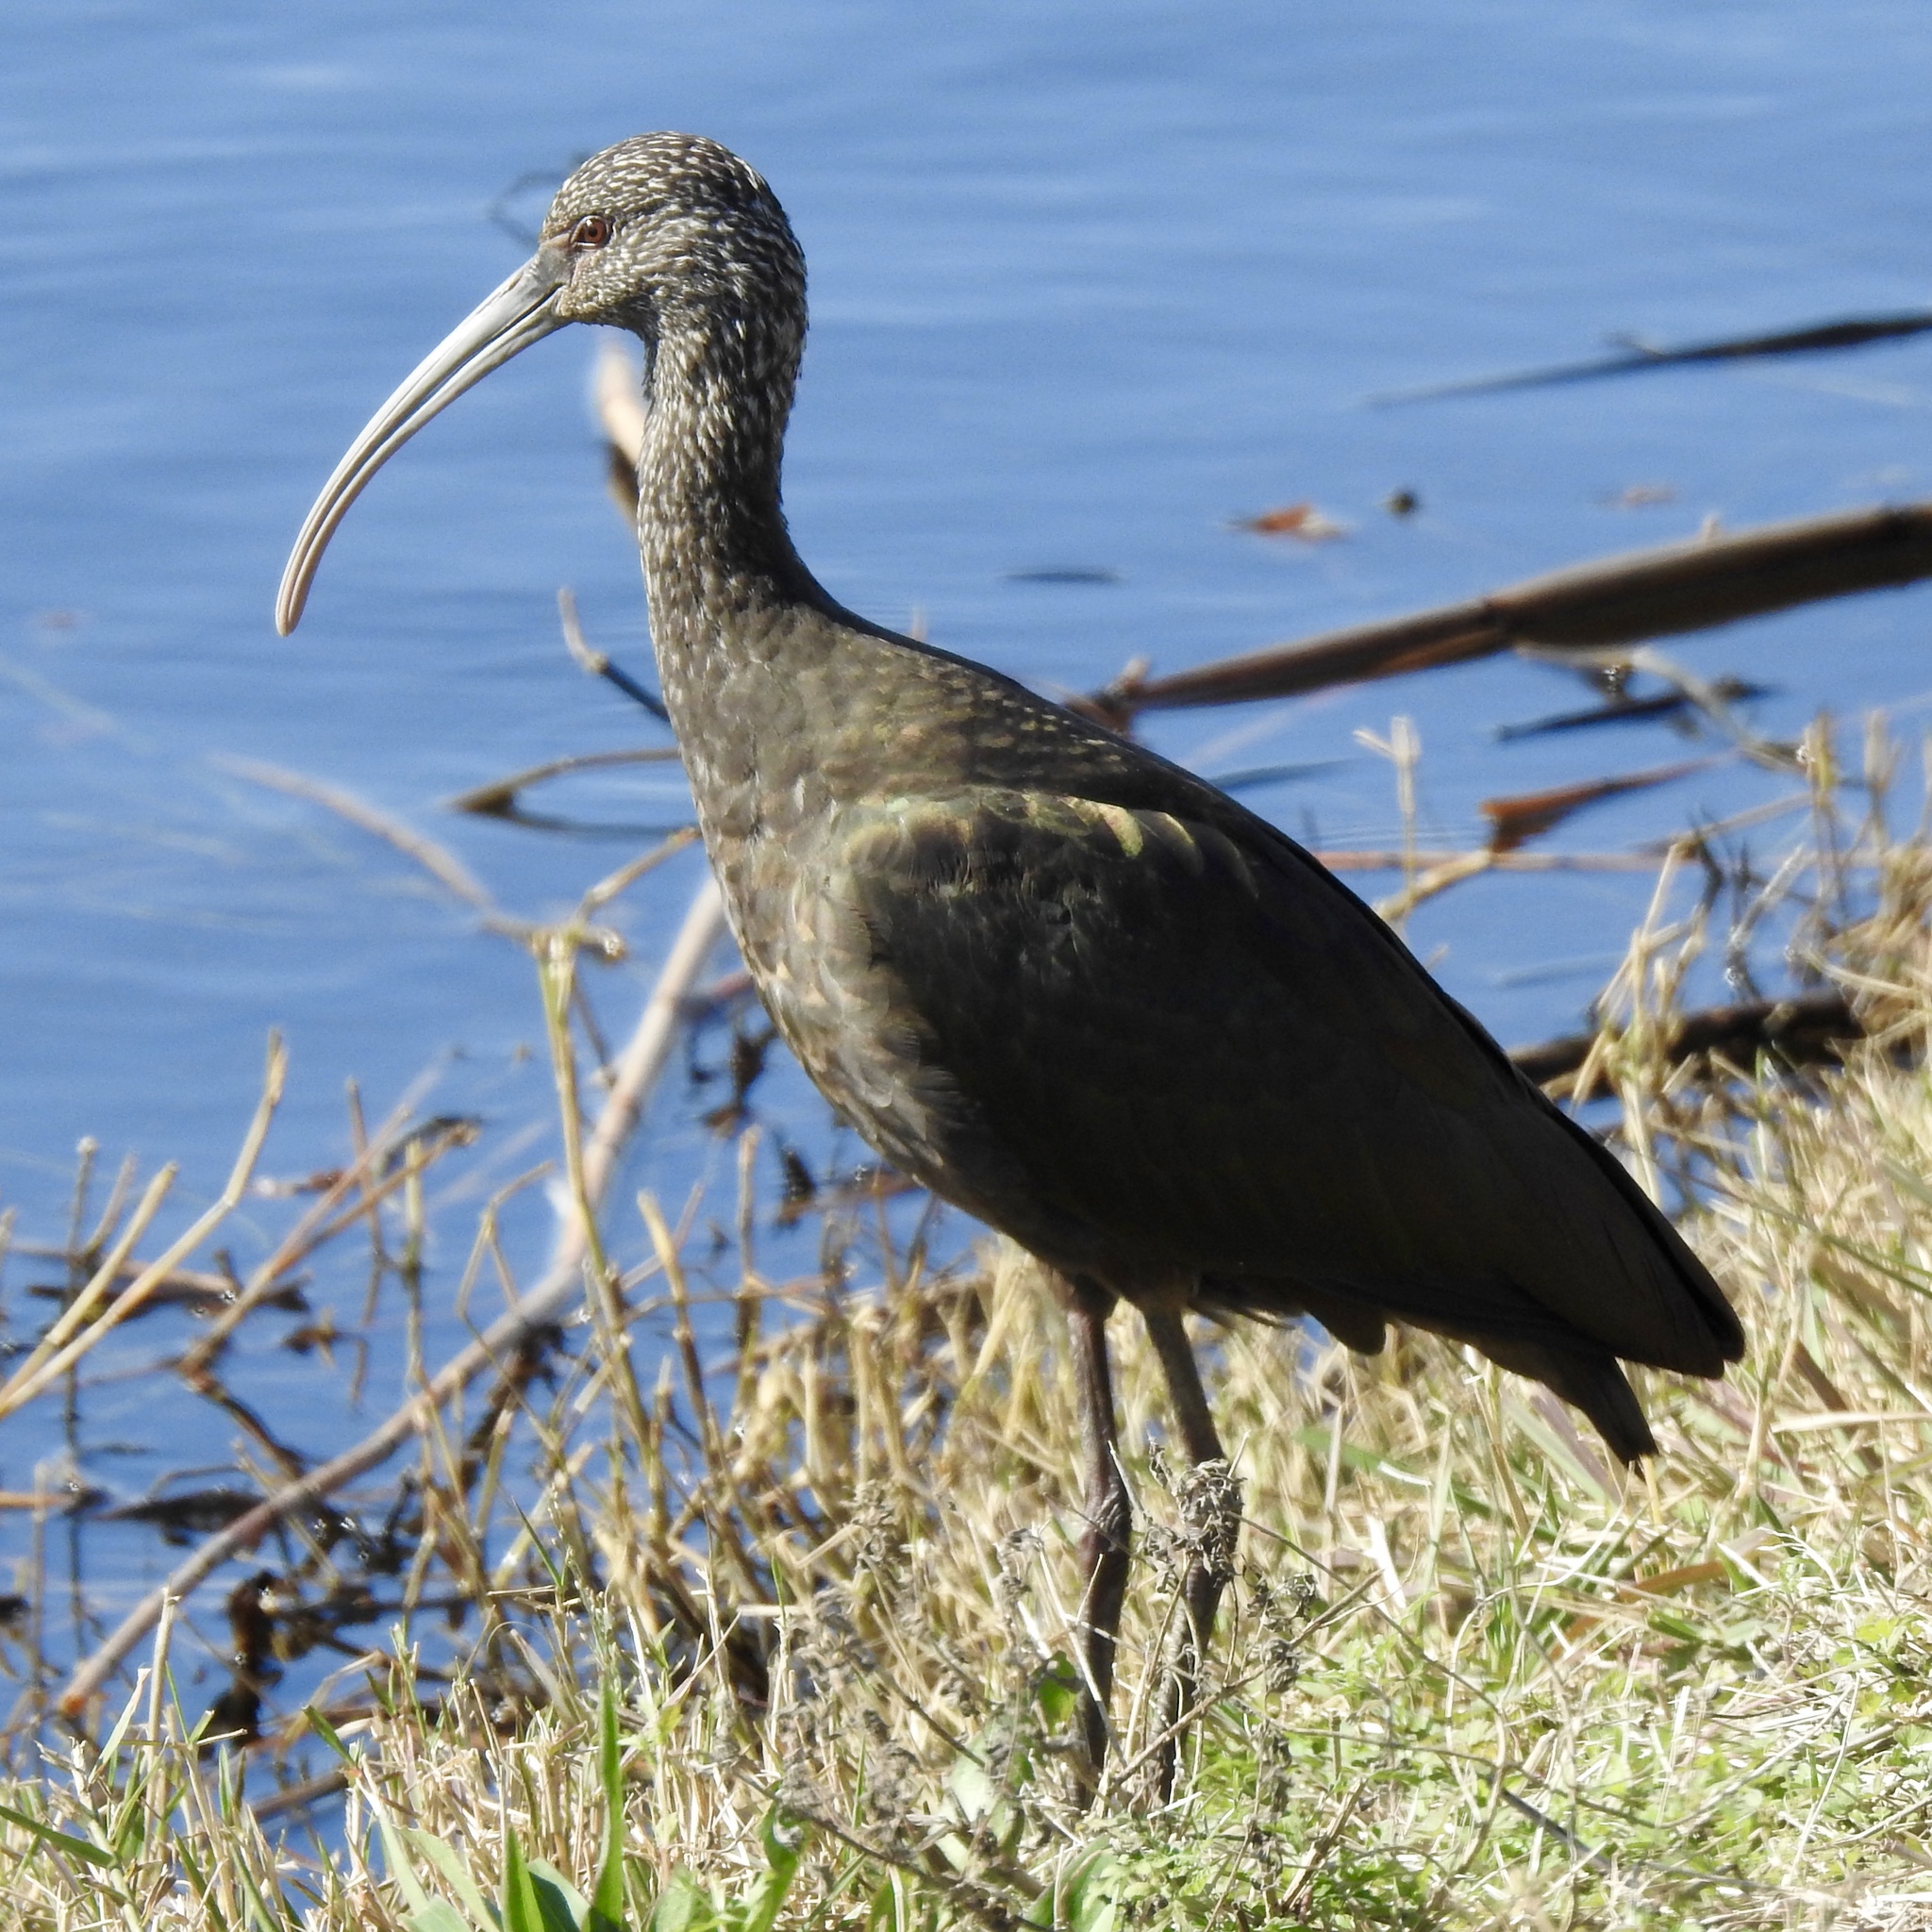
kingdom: Animalia
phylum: Chordata
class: Aves
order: Pelecaniformes
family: Threskiornithidae
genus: Plegadis
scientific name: Plegadis chihi
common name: White-faced ibis
